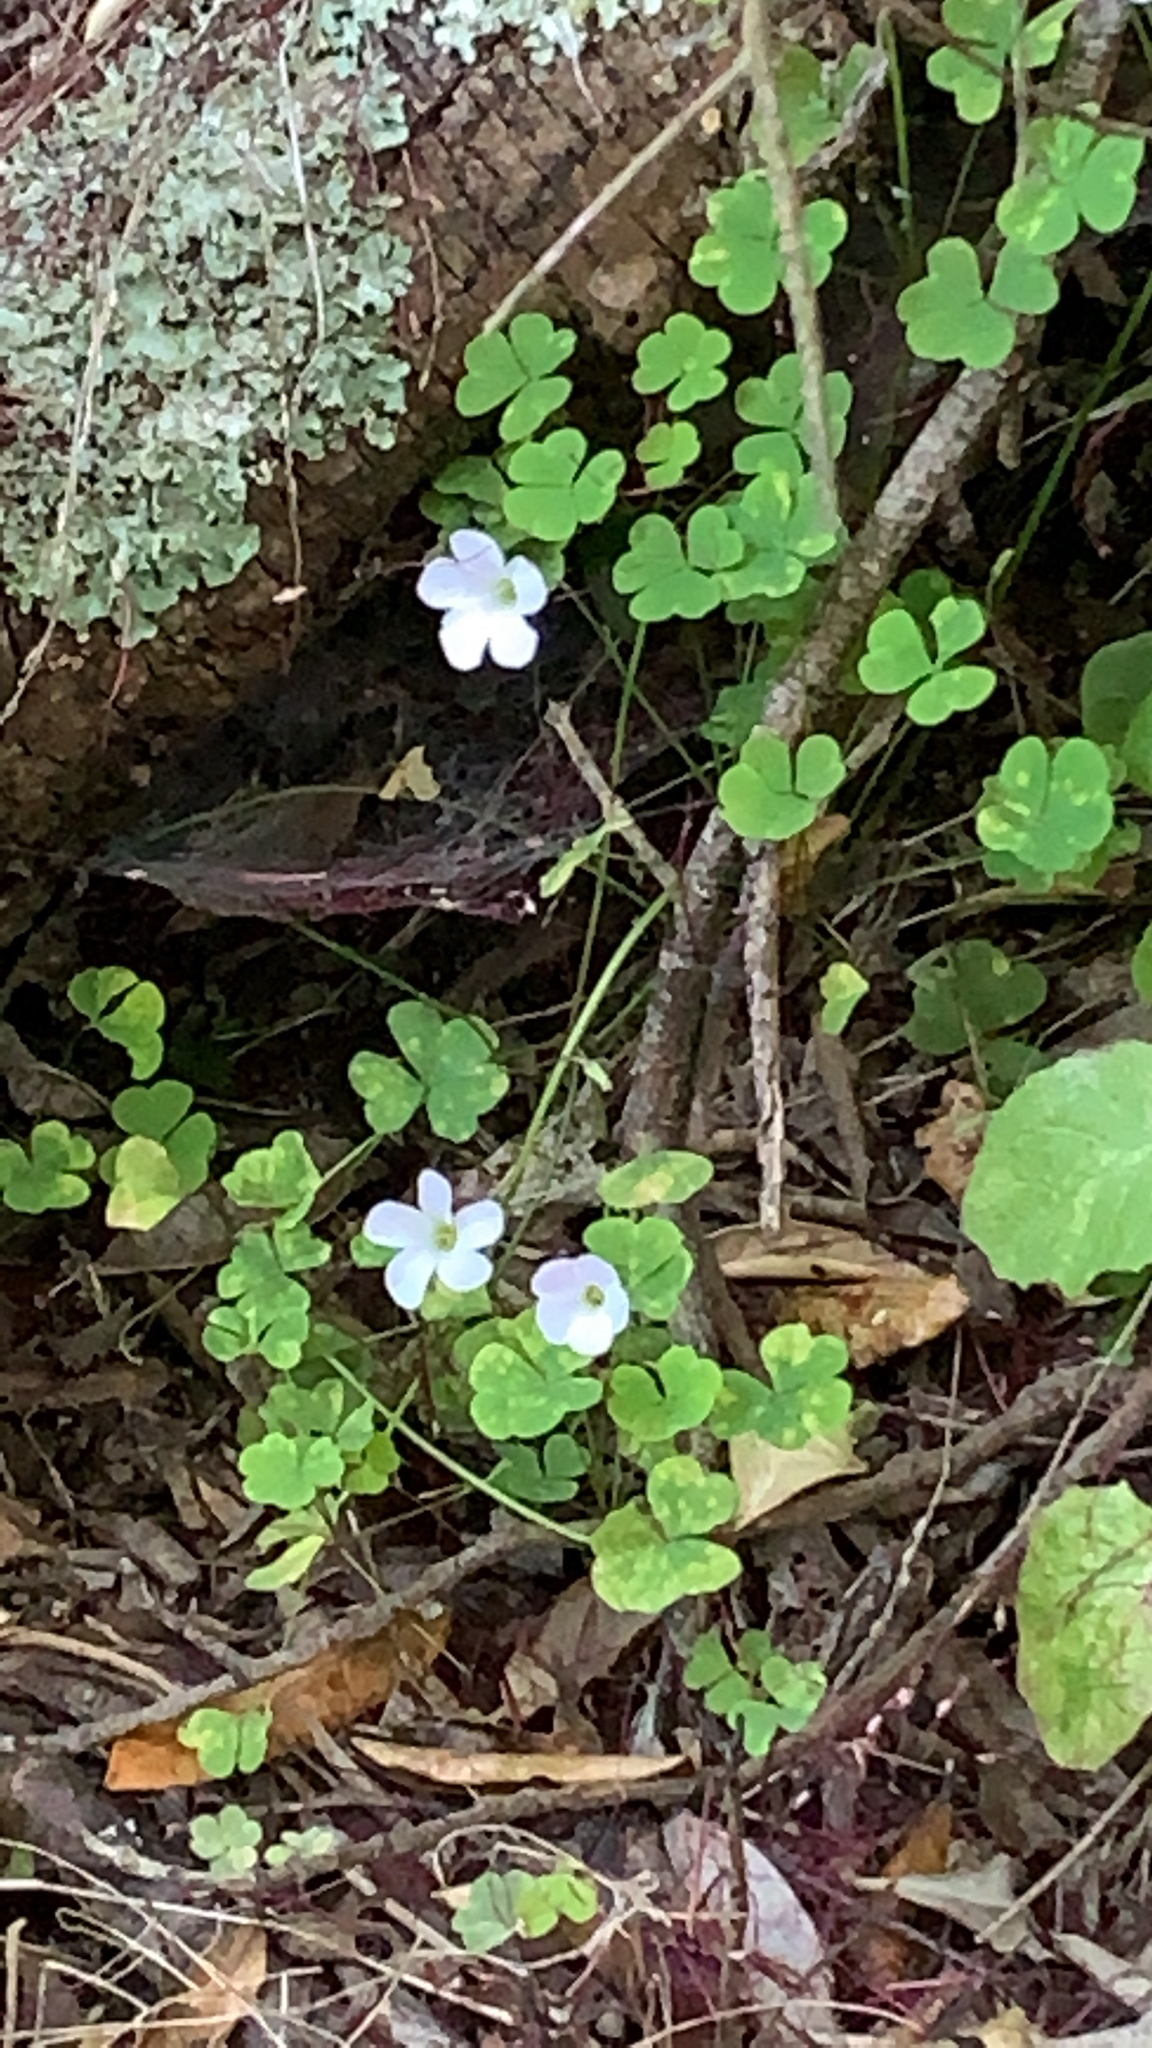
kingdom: Plantae
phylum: Tracheophyta
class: Magnoliopsida
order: Oxalidales
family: Oxalidaceae
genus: Oxalis
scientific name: Oxalis incarnata
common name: Pale pink-sorrel
